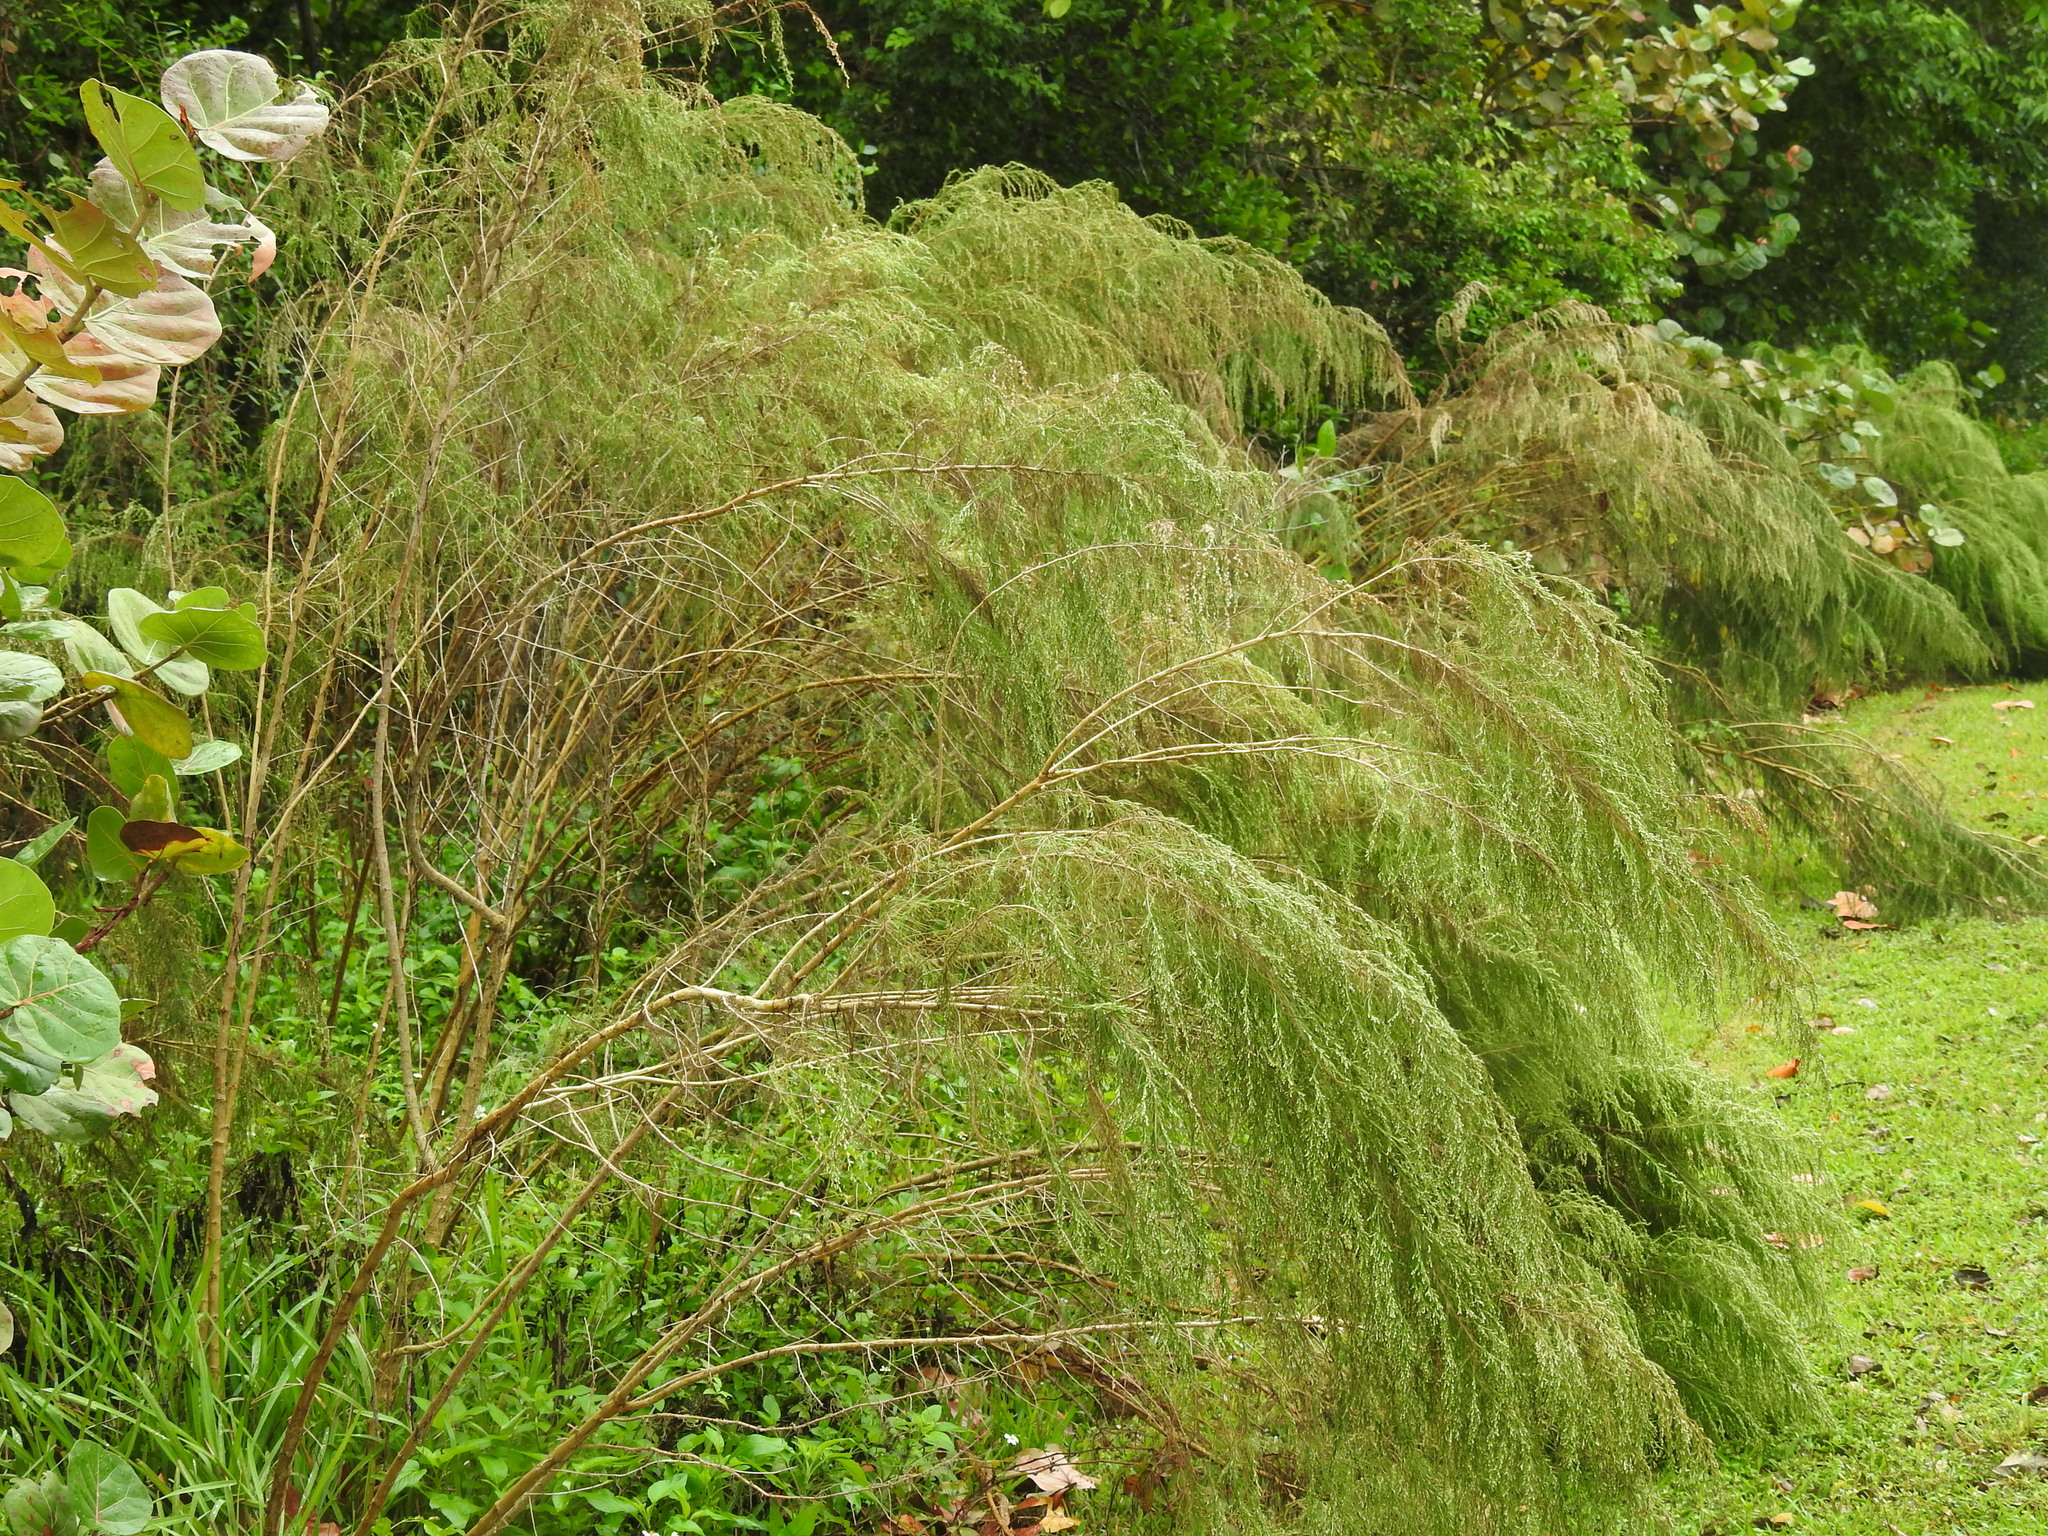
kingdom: Plantae
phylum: Tracheophyta
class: Magnoliopsida
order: Asterales
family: Asteraceae
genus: Eupatorium
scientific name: Eupatorium capillifolium
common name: Dog-fennel
